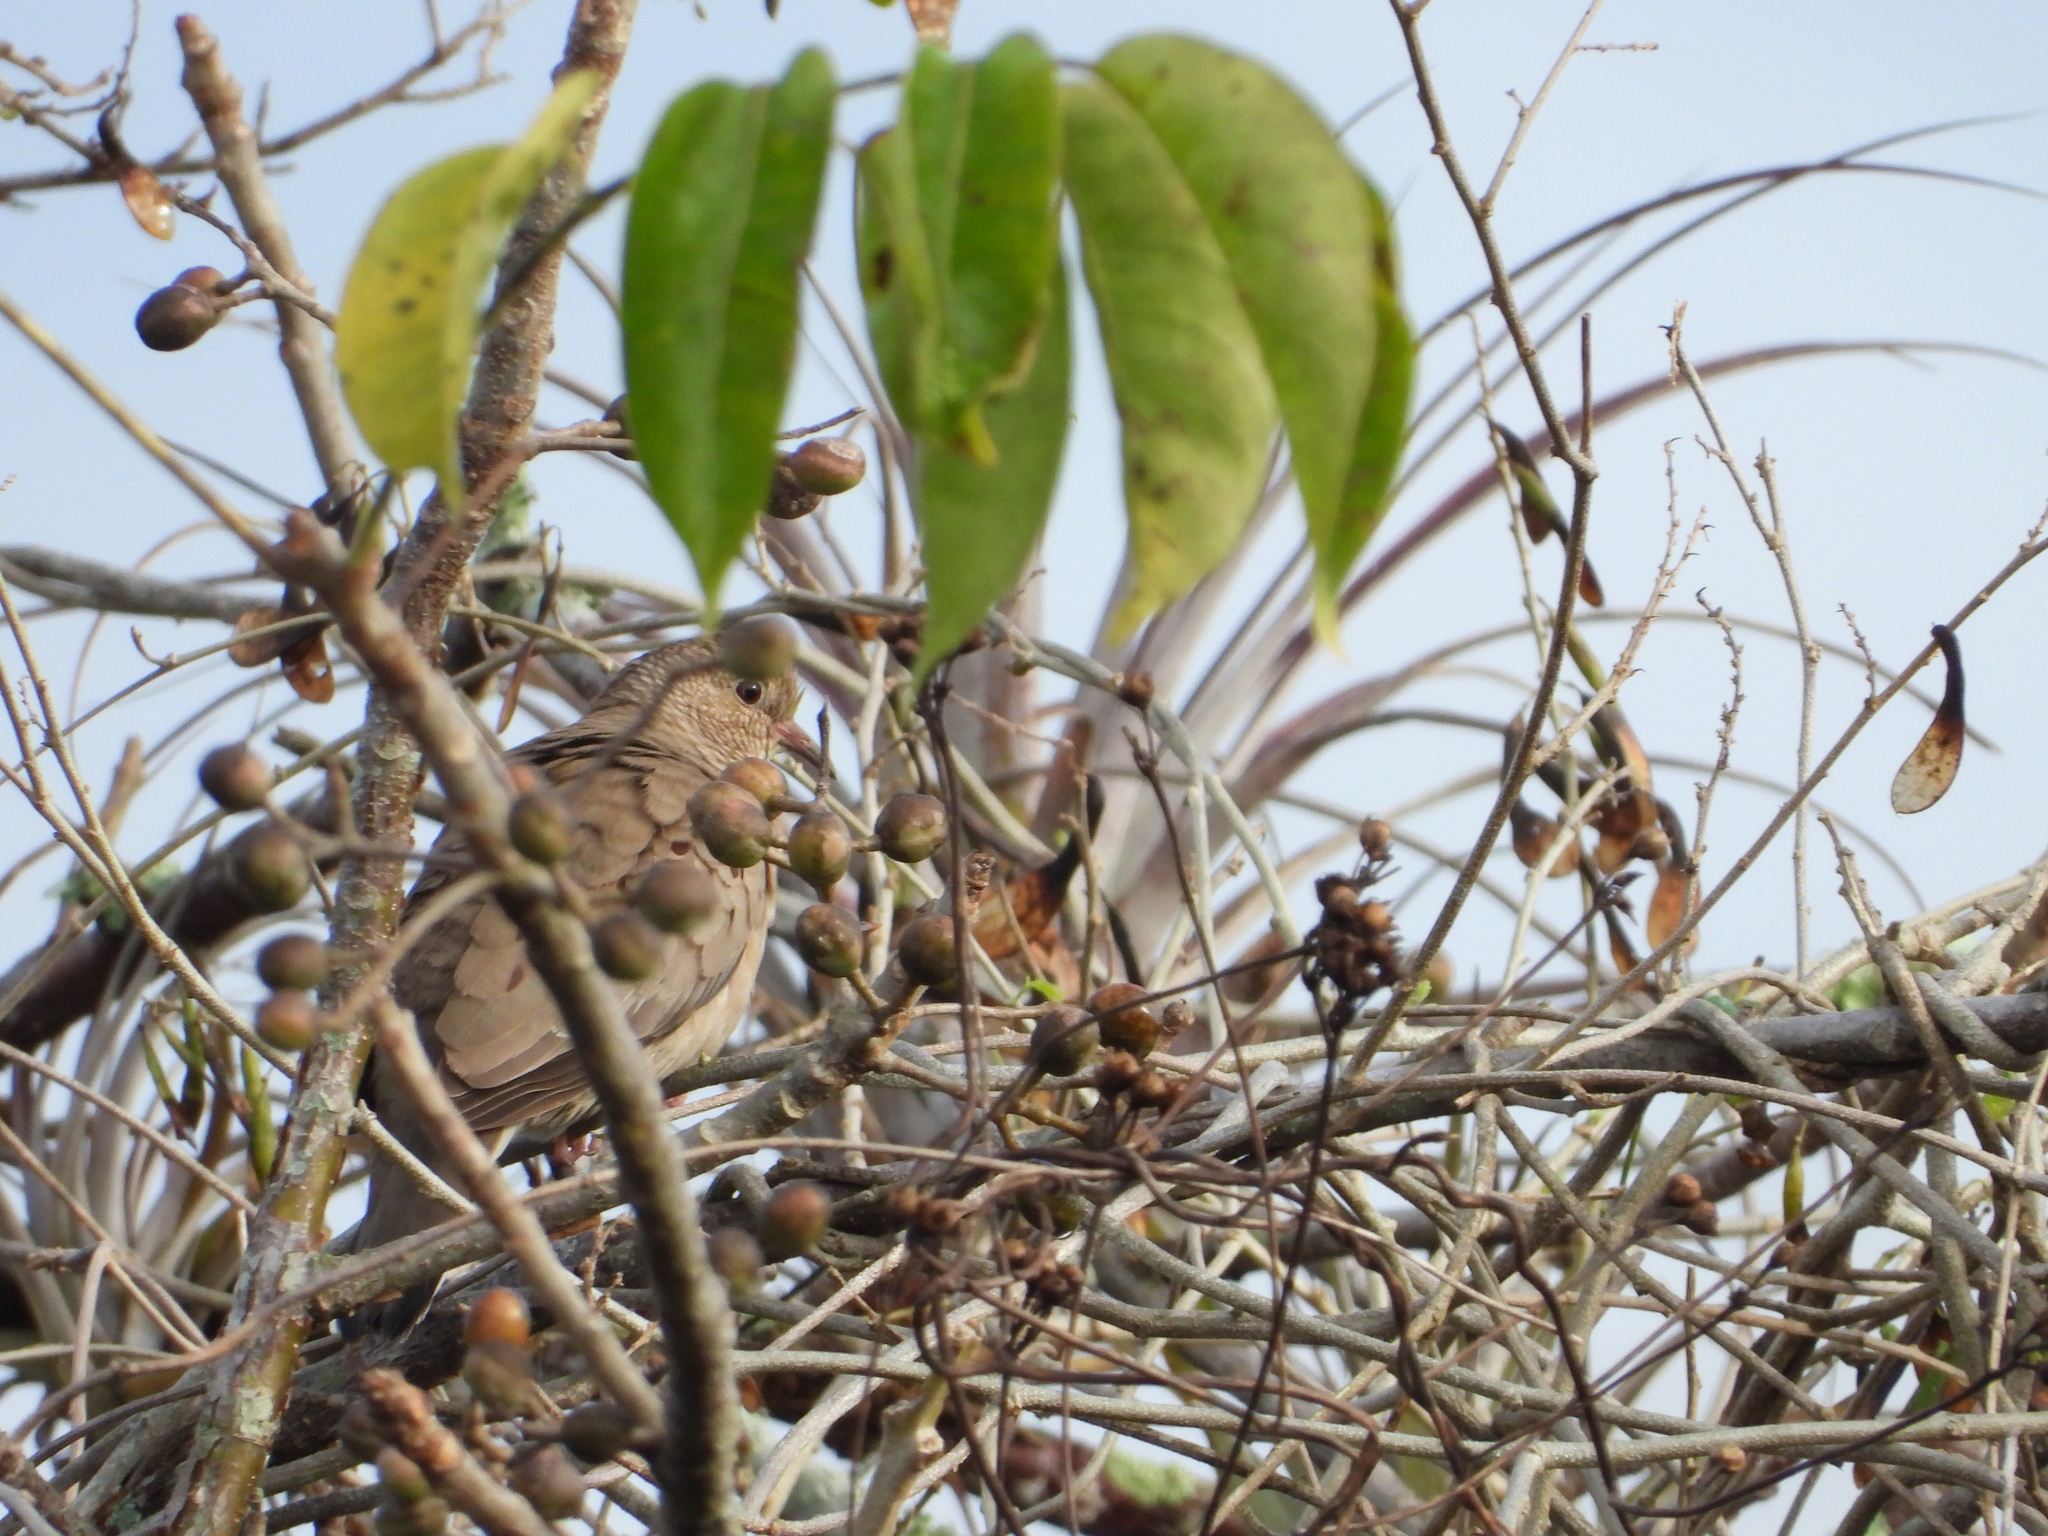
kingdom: Animalia
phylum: Chordata
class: Aves
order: Columbiformes
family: Columbidae
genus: Columbina
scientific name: Columbina passerina
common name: Common ground-dove
